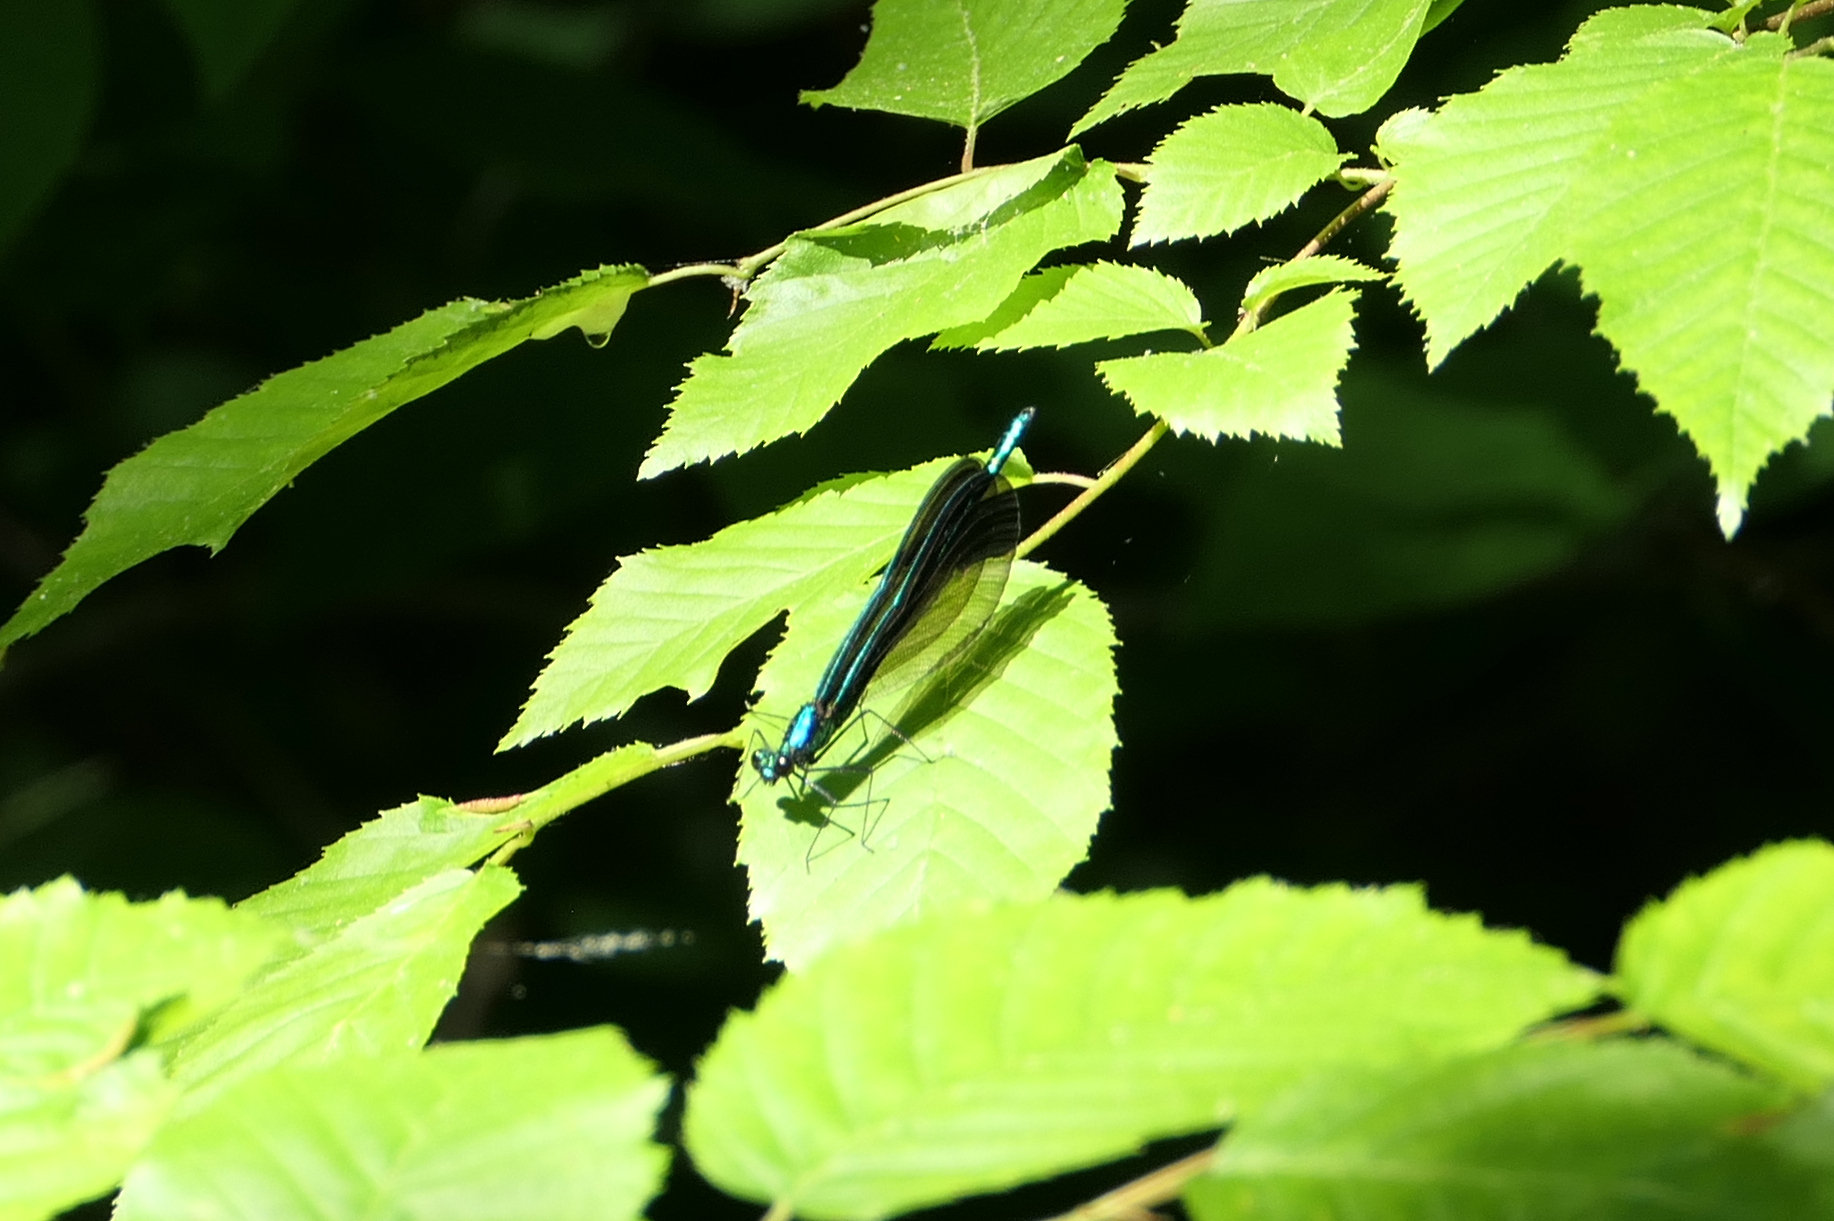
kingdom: Animalia
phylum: Arthropoda
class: Insecta
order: Odonata
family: Calopterygidae
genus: Calopteryx
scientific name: Calopteryx maculata
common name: Ebony jewelwing
